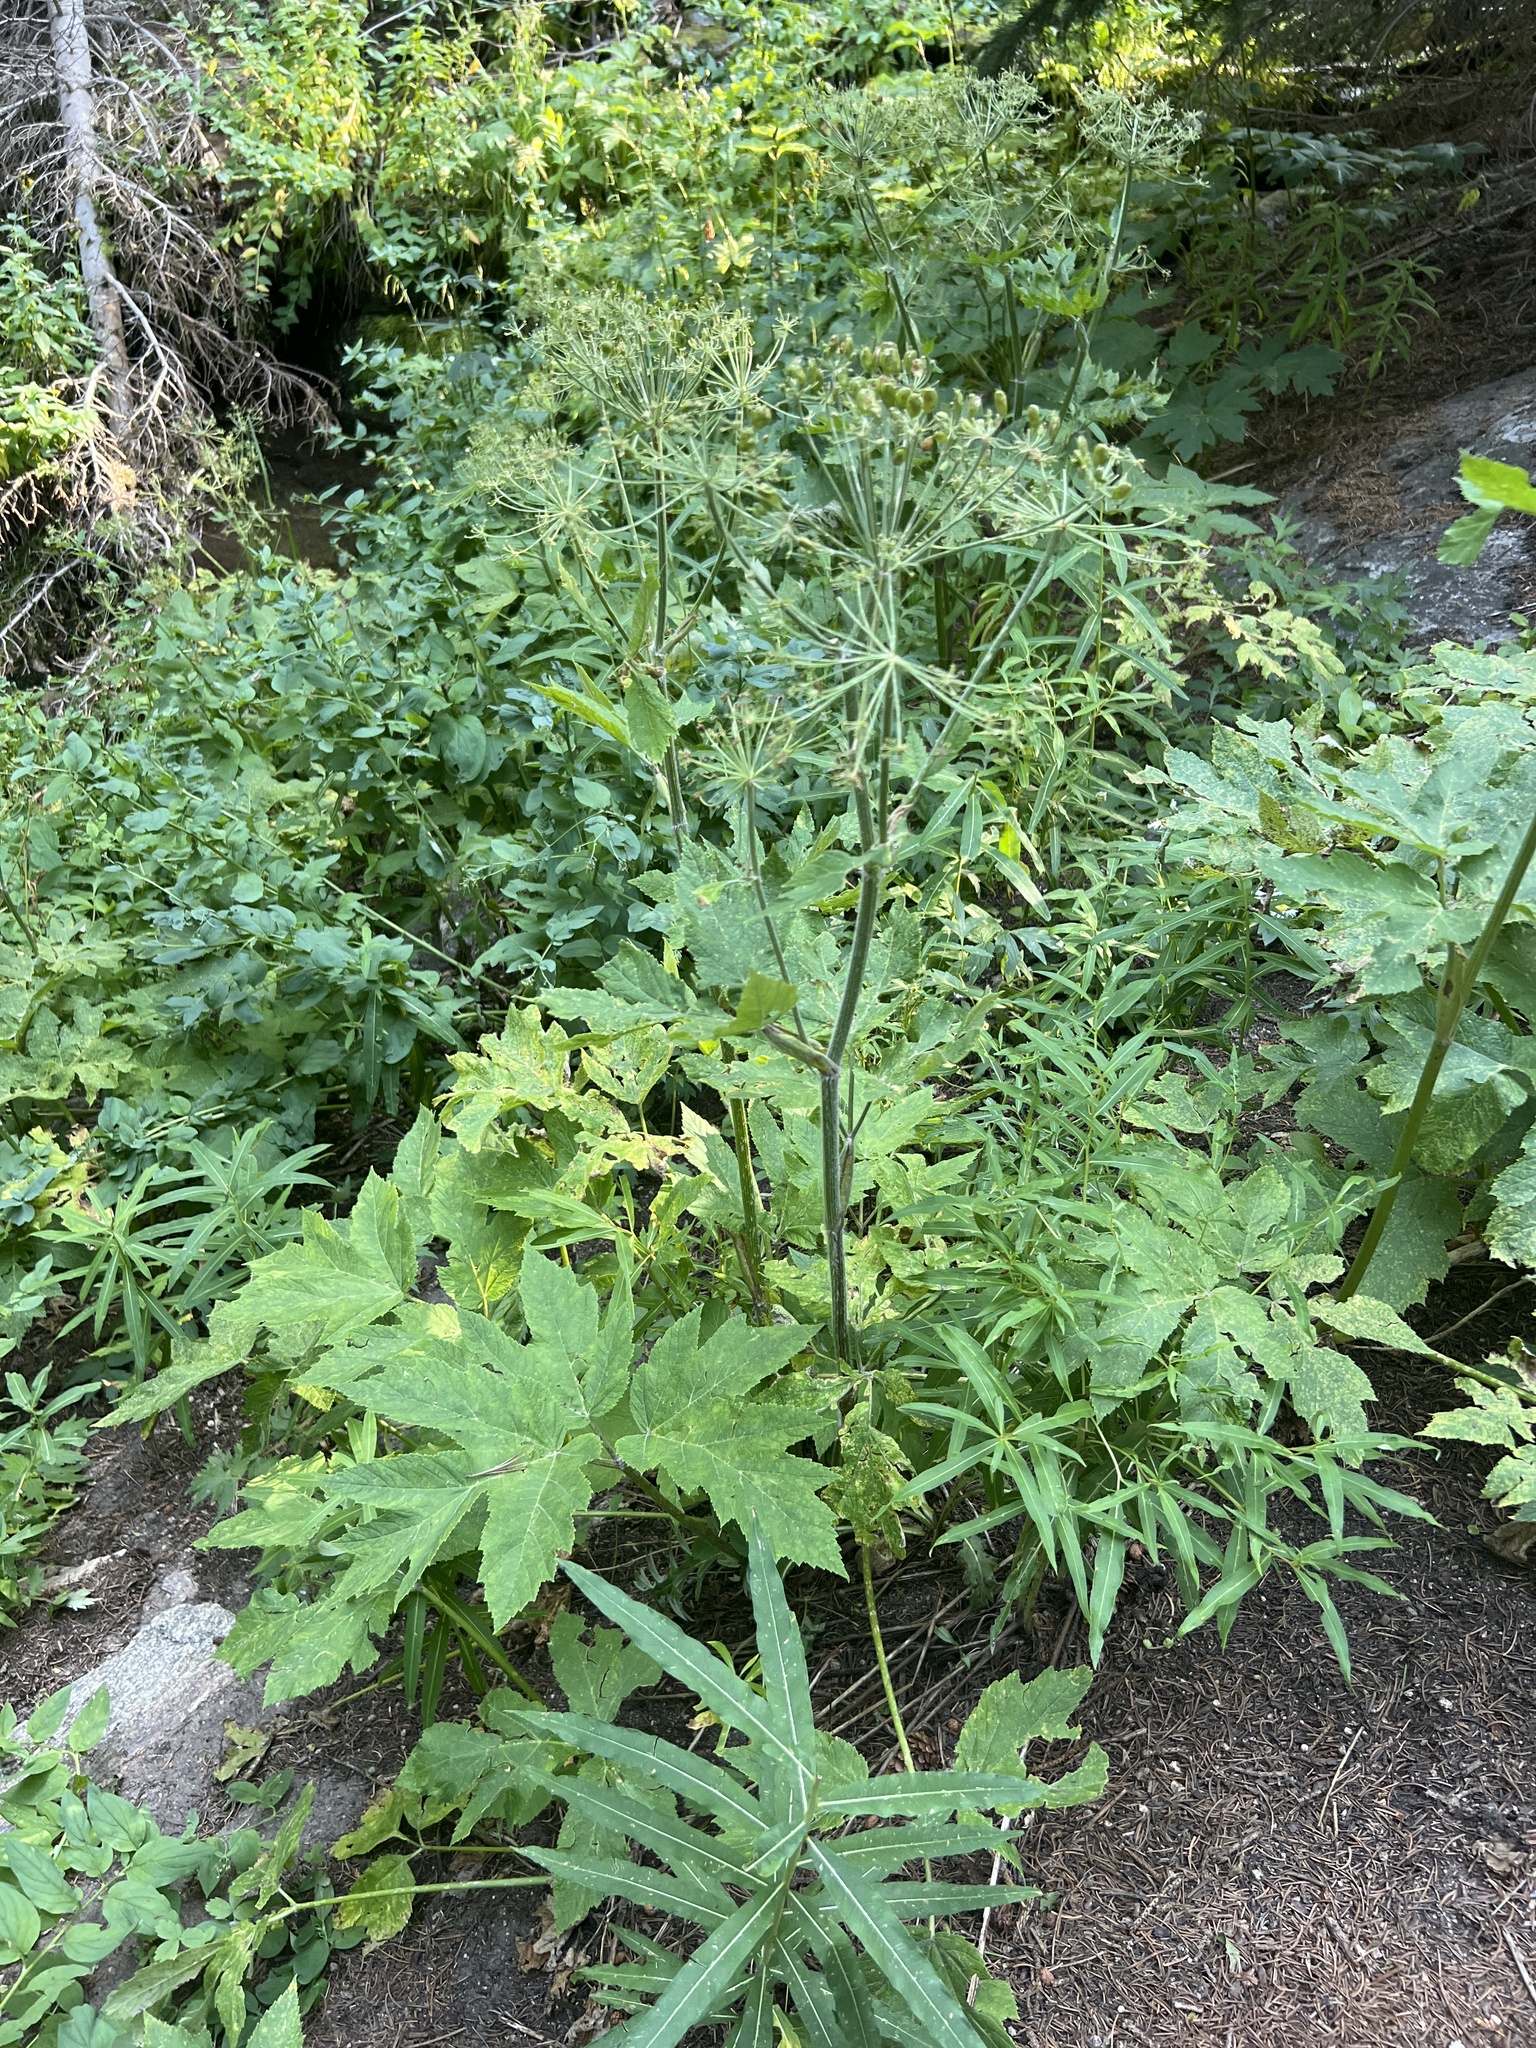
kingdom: Plantae
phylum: Tracheophyta
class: Magnoliopsida
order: Apiales
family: Apiaceae
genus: Heracleum
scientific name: Heracleum maximum
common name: American cow parsnip
